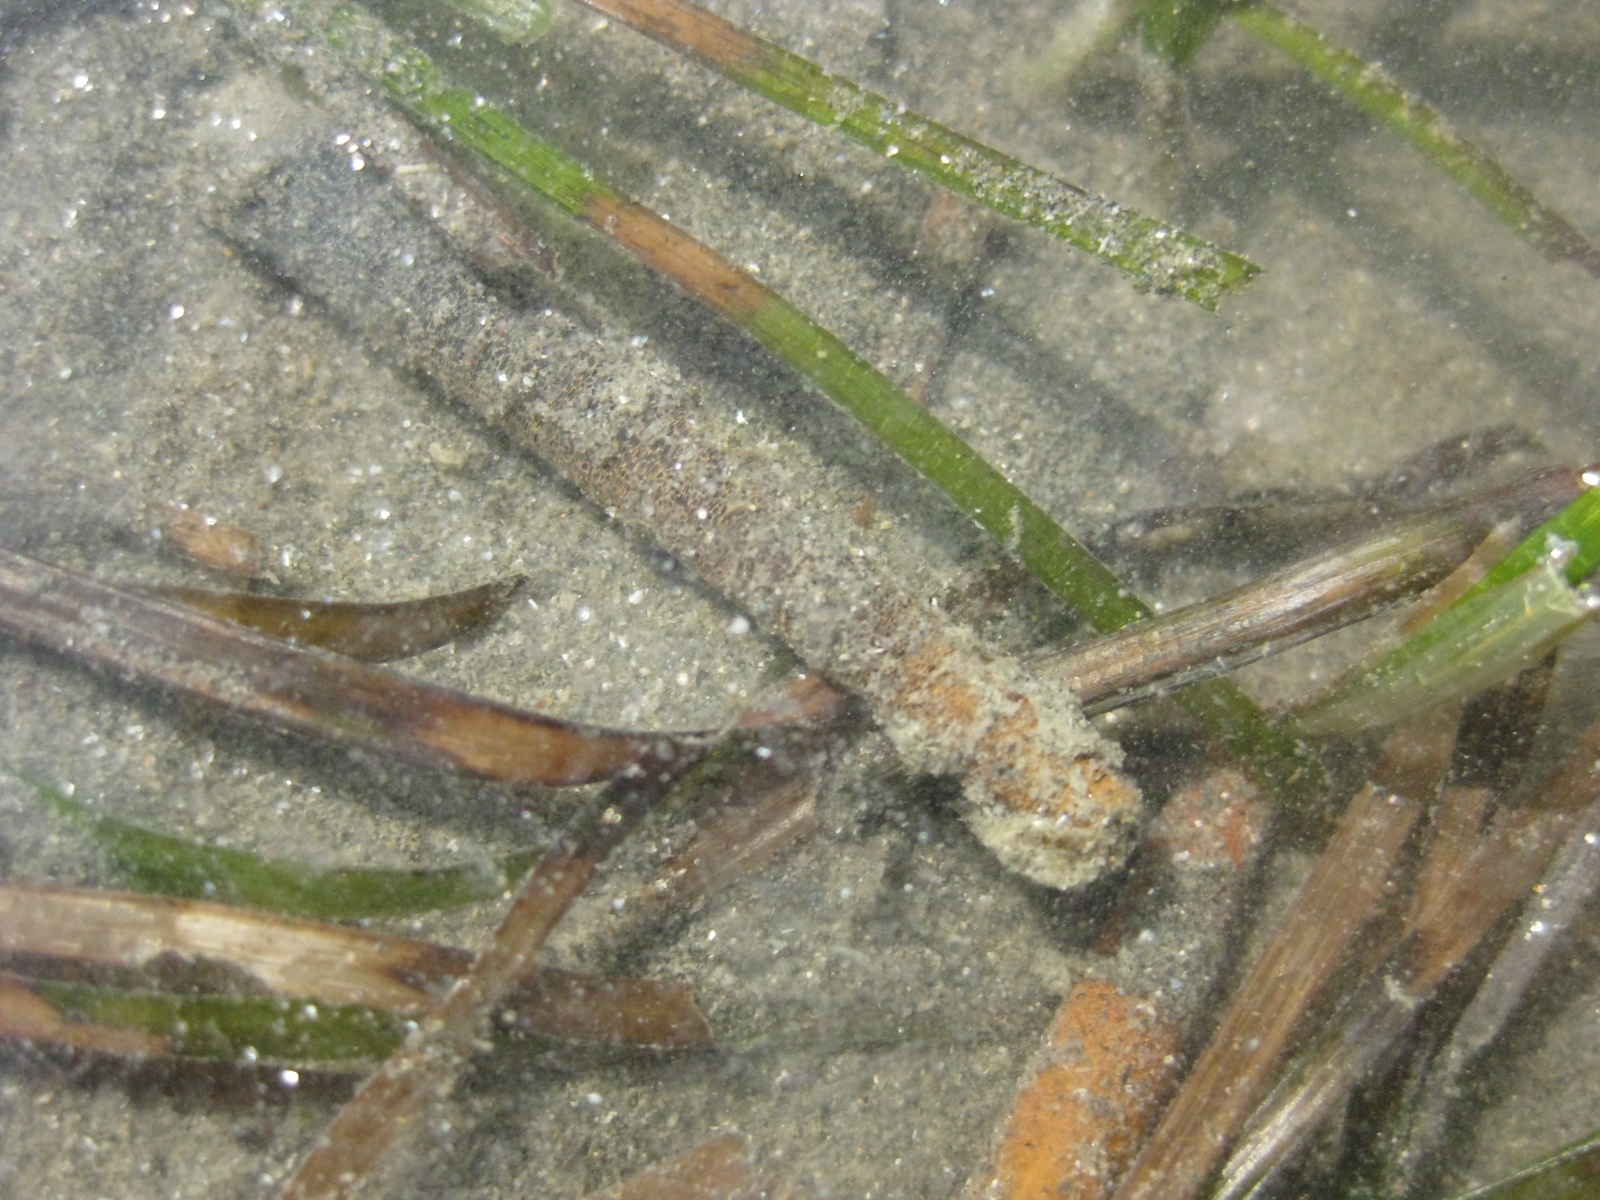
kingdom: Animalia
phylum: Annelida
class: Polychaeta
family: Pectinariidae
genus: Lagis
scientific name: Lagis australis
